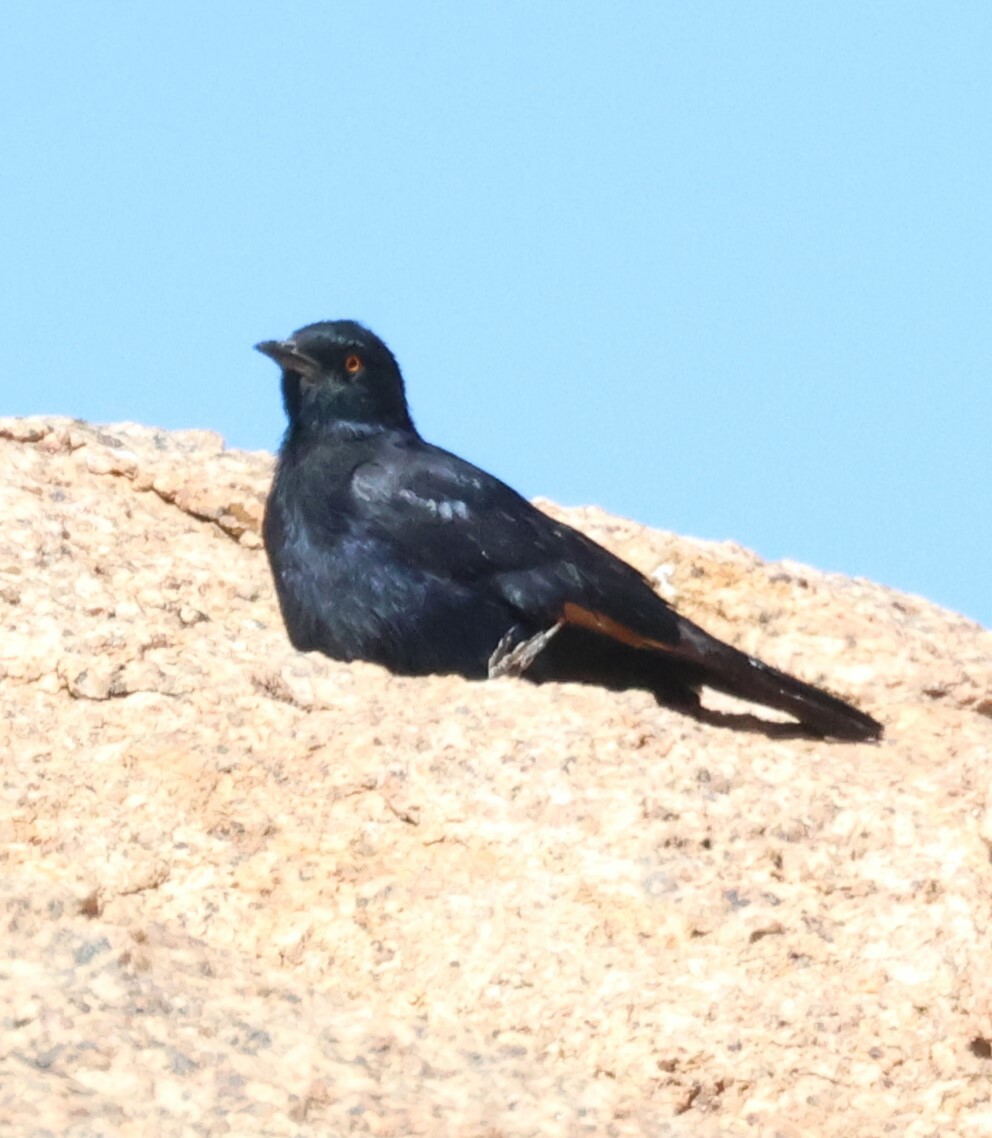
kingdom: Animalia
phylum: Chordata
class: Aves
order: Passeriformes
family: Sturnidae
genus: Onychognathus
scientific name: Onychognathus nabouroup
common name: Pale-winged starling
